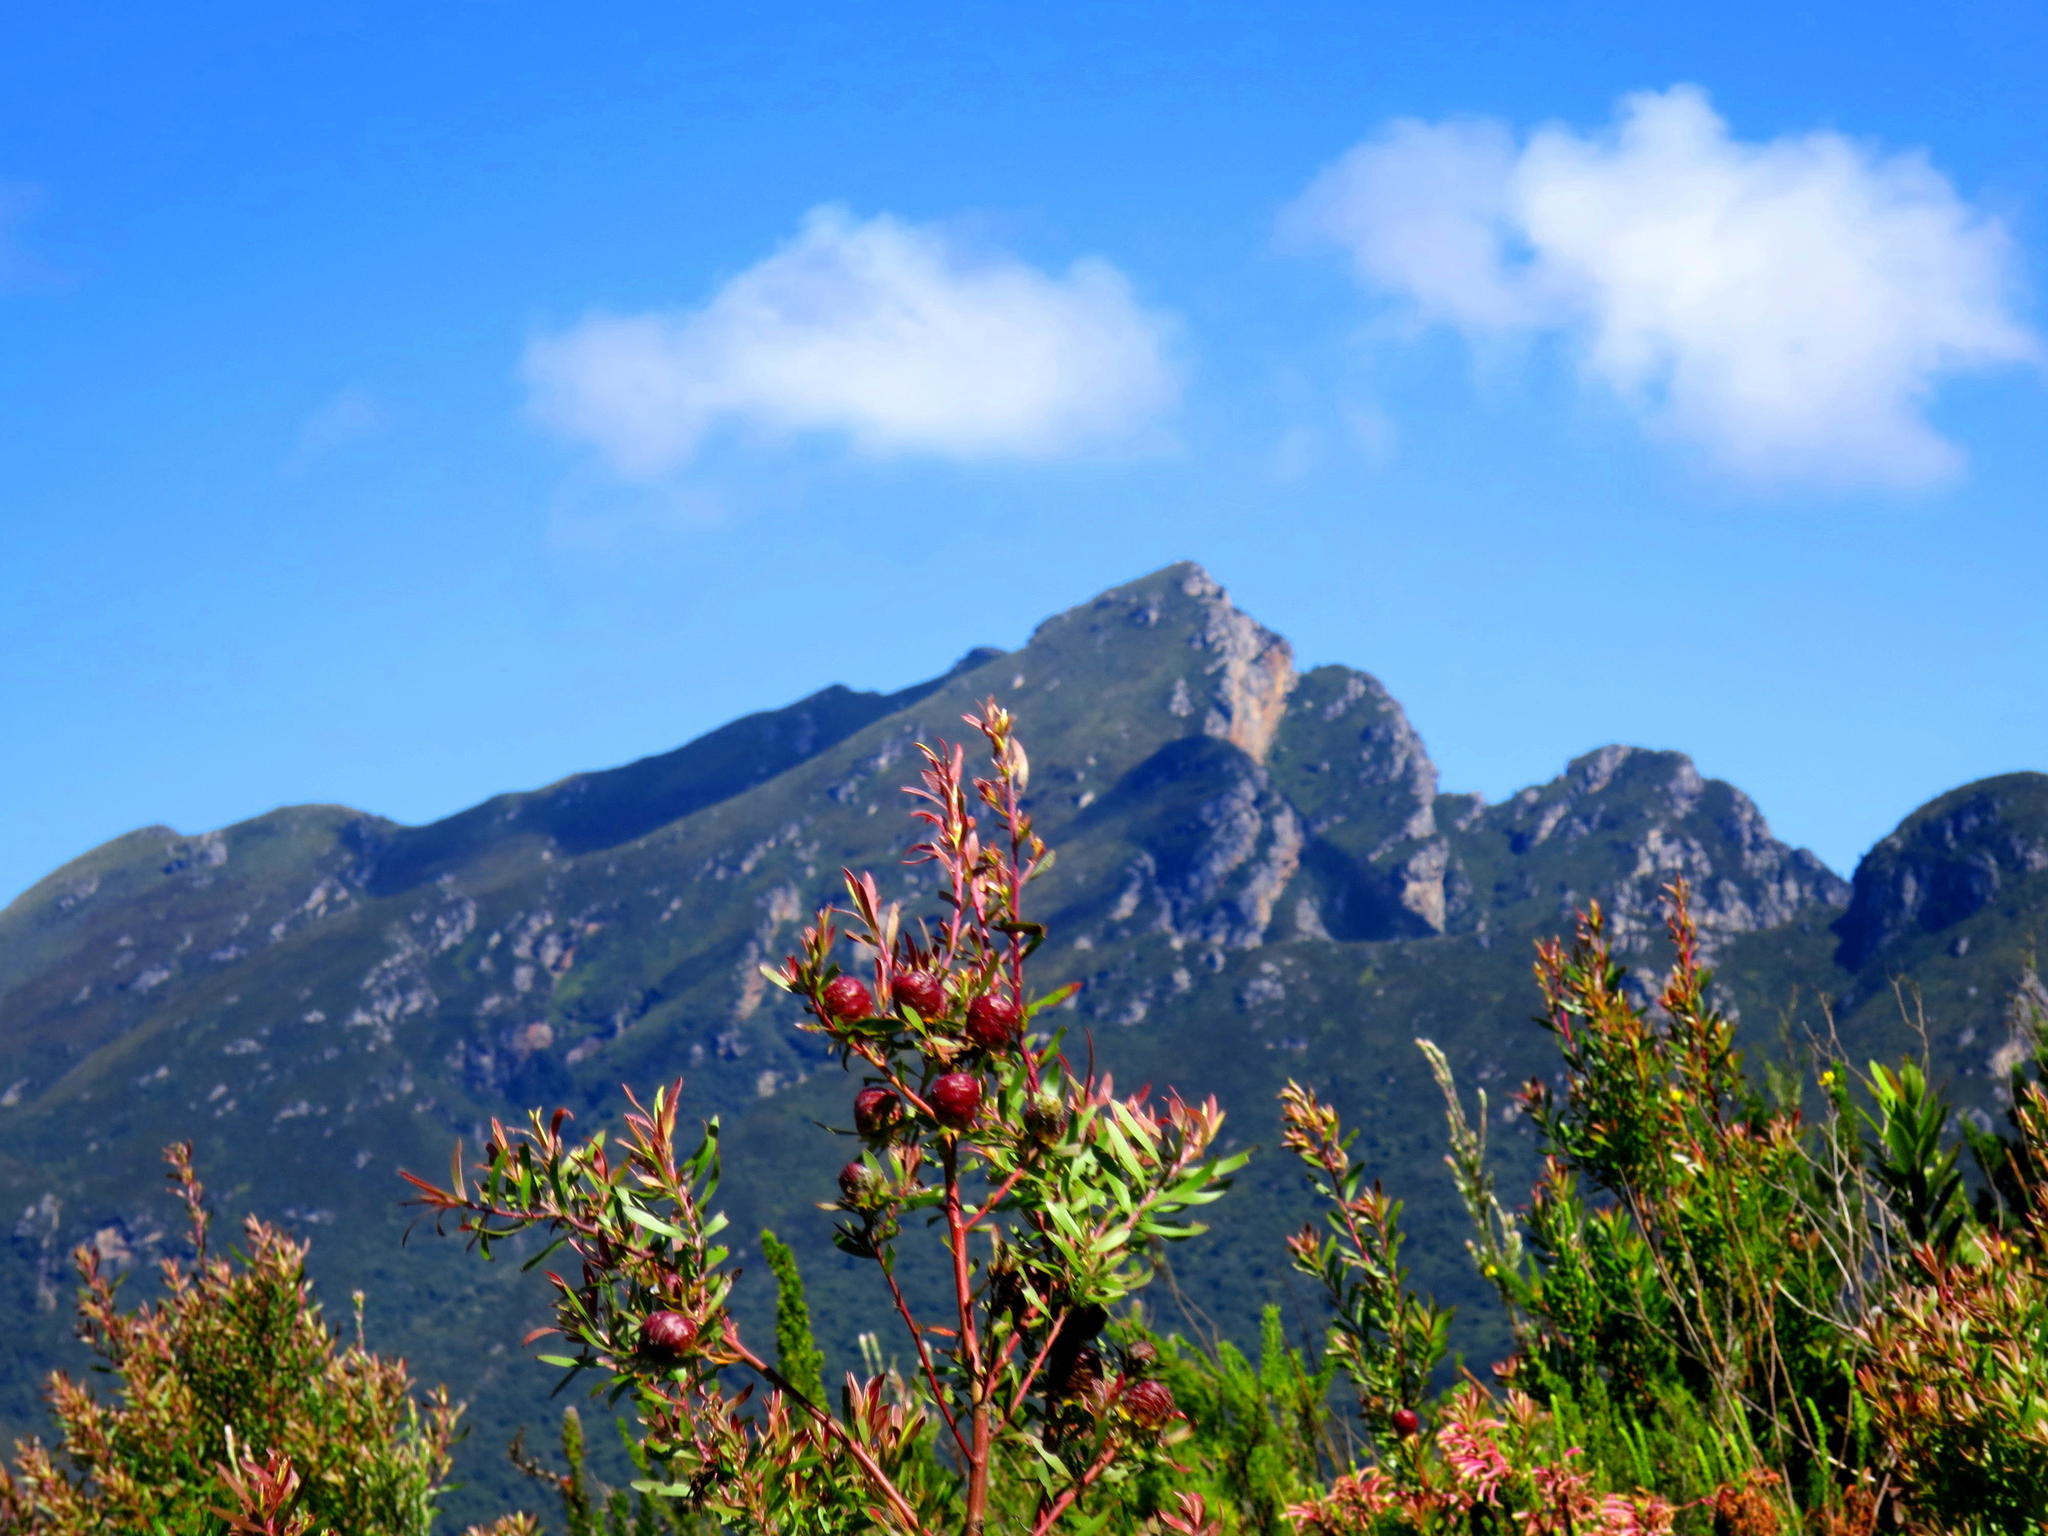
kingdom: Plantae
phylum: Tracheophyta
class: Magnoliopsida
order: Proteales
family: Proteaceae
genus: Leucadendron
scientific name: Leucadendron conicum
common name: Garden route conebush
